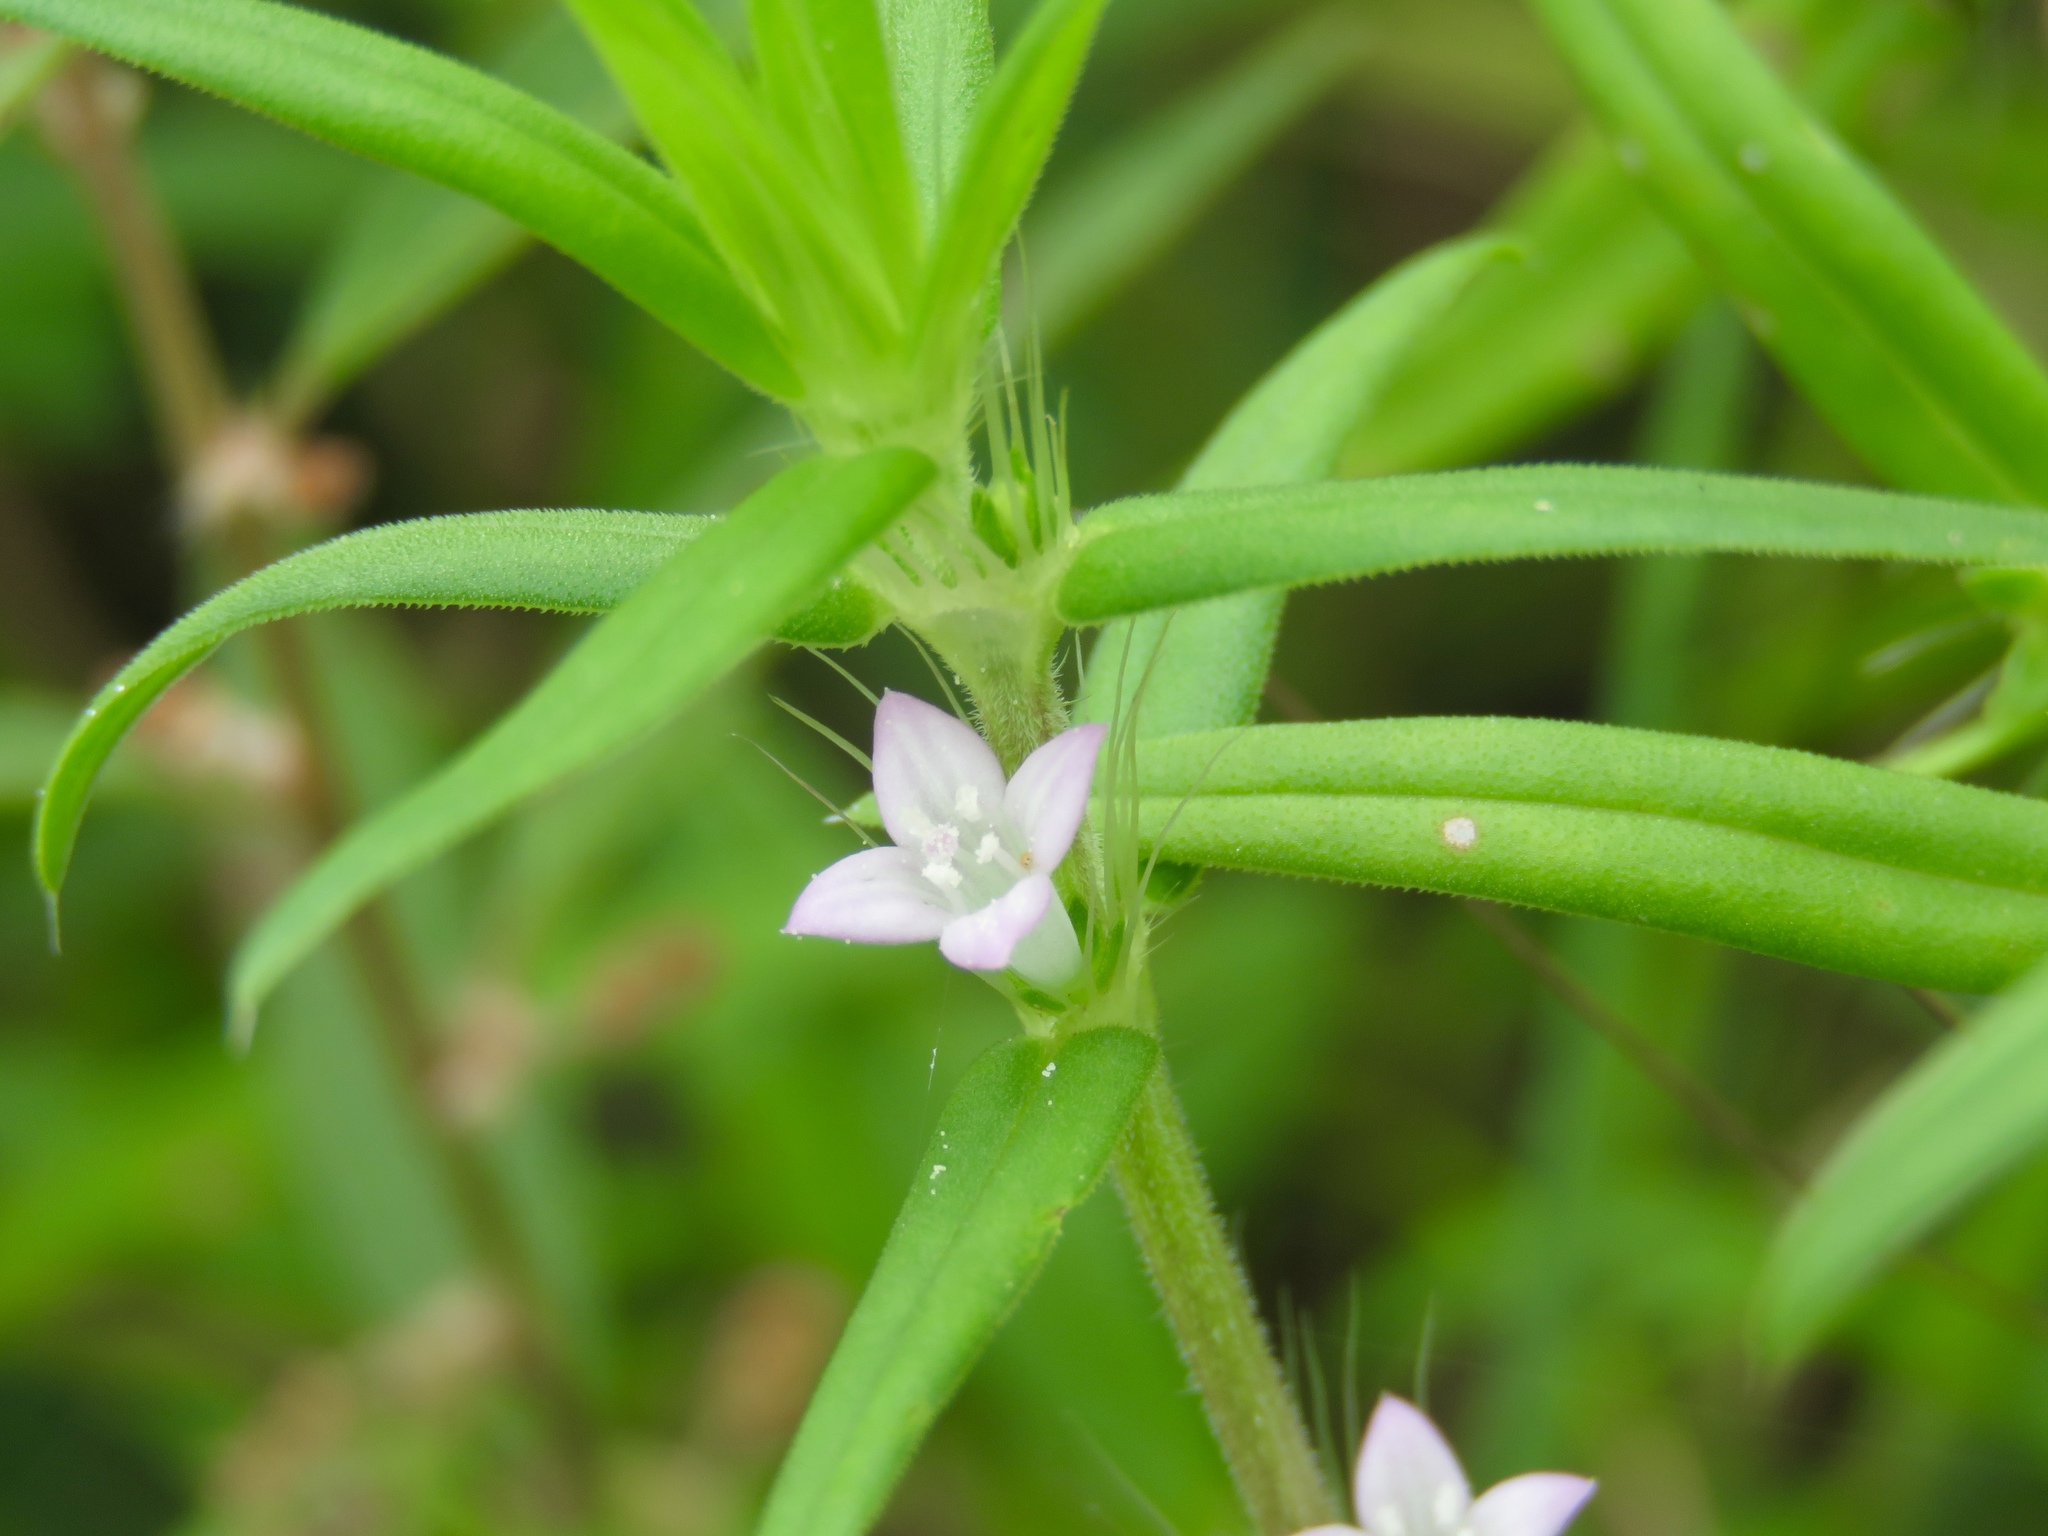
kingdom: Plantae
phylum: Tracheophyta
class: Magnoliopsida
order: Gentianales
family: Rubiaceae
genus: Hexasepalum
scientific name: Hexasepalum teres
